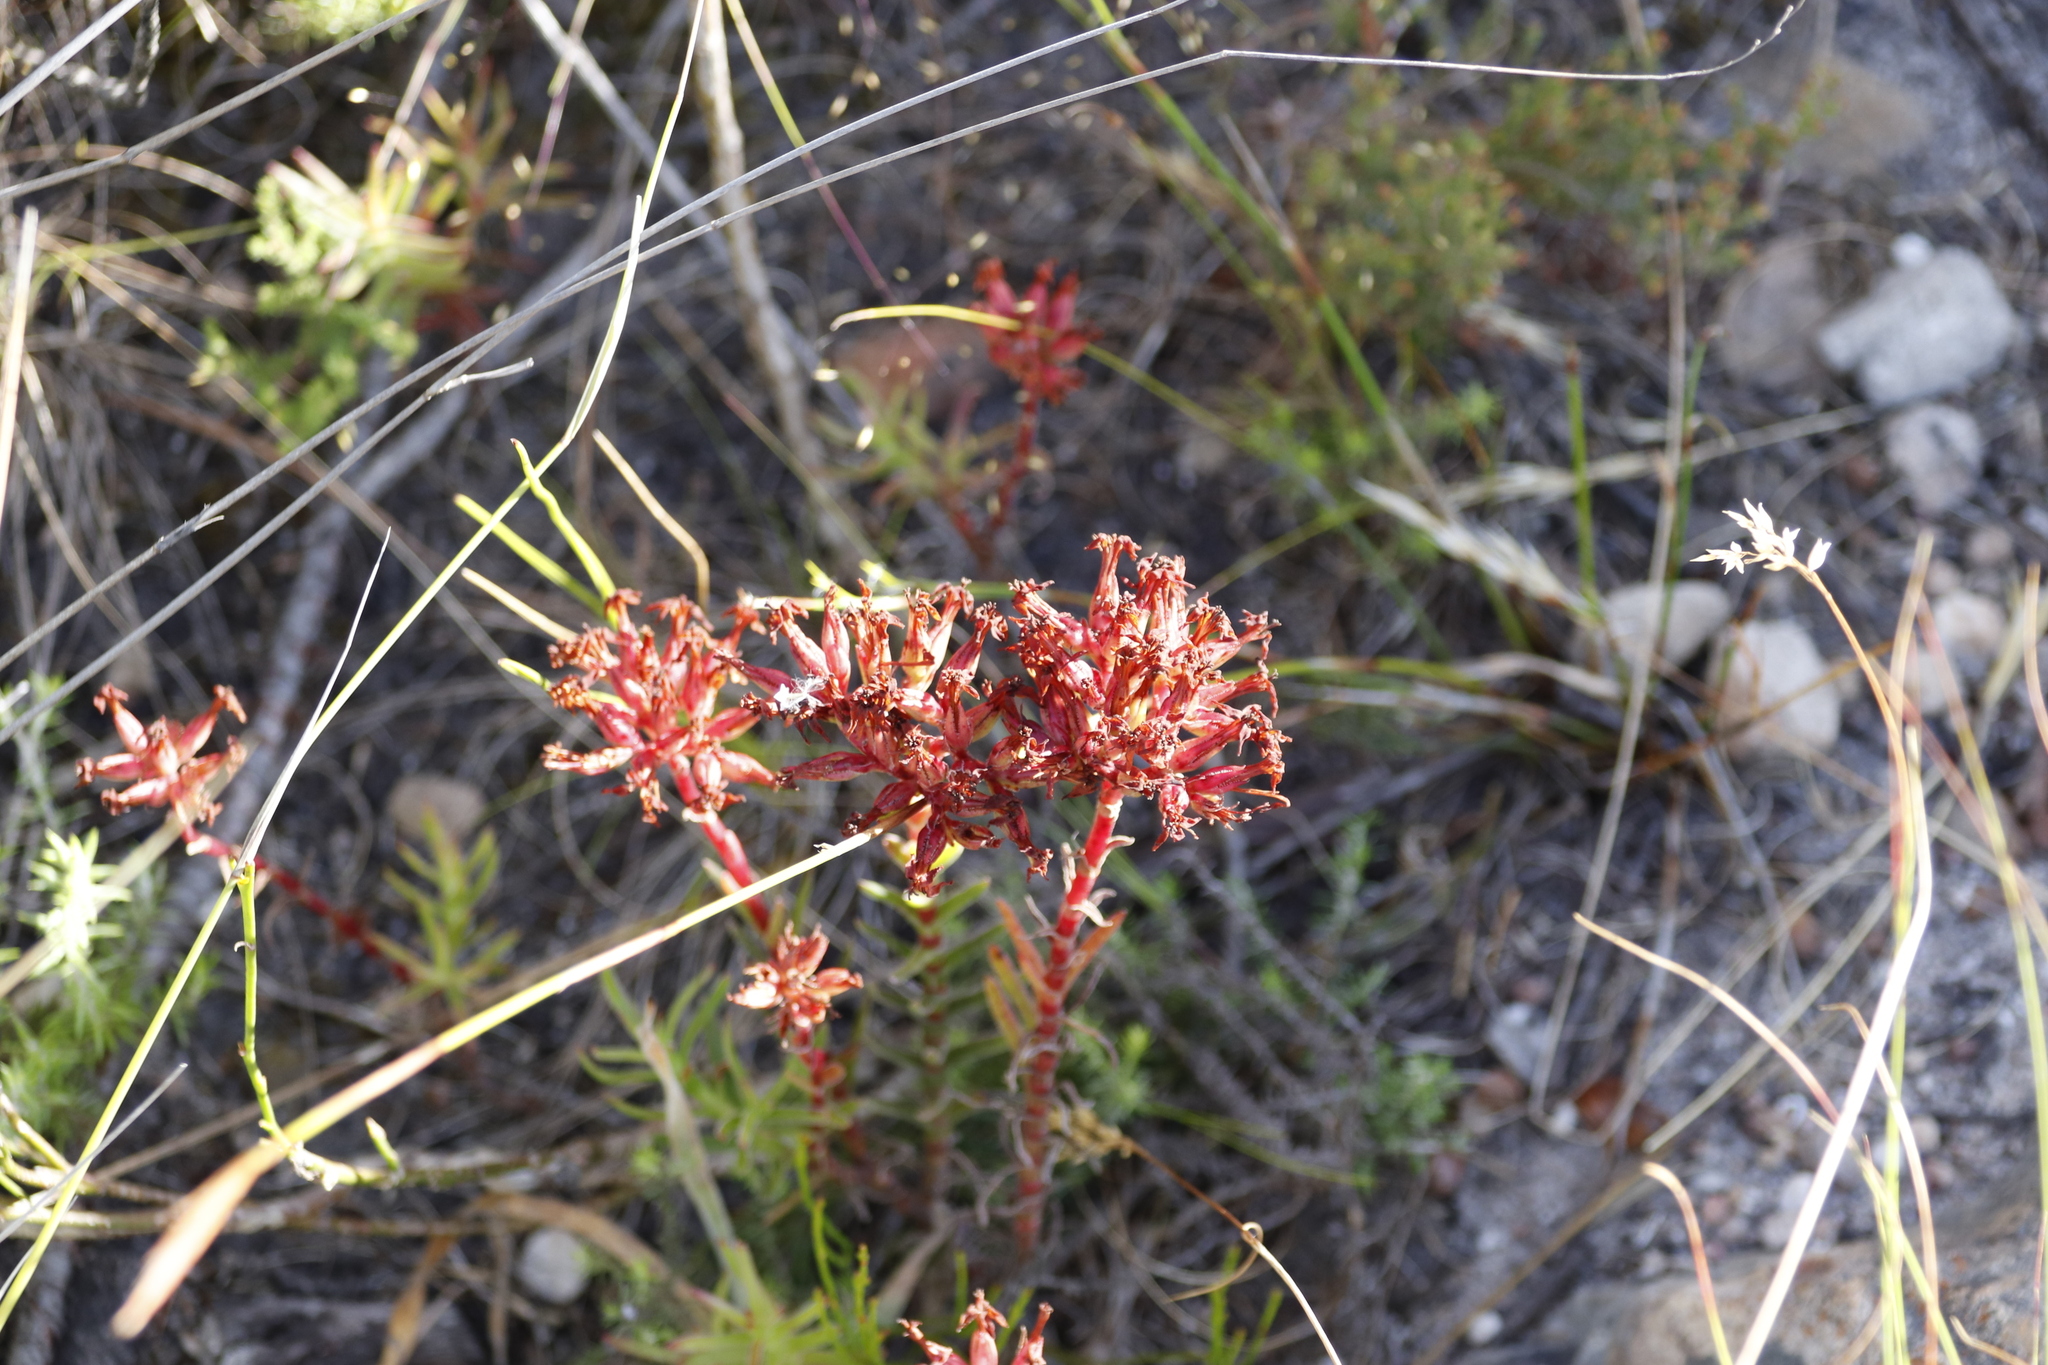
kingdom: Plantae
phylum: Tracheophyta
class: Magnoliopsida
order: Saxifragales
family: Crassulaceae
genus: Crassula
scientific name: Crassula fascicularis
